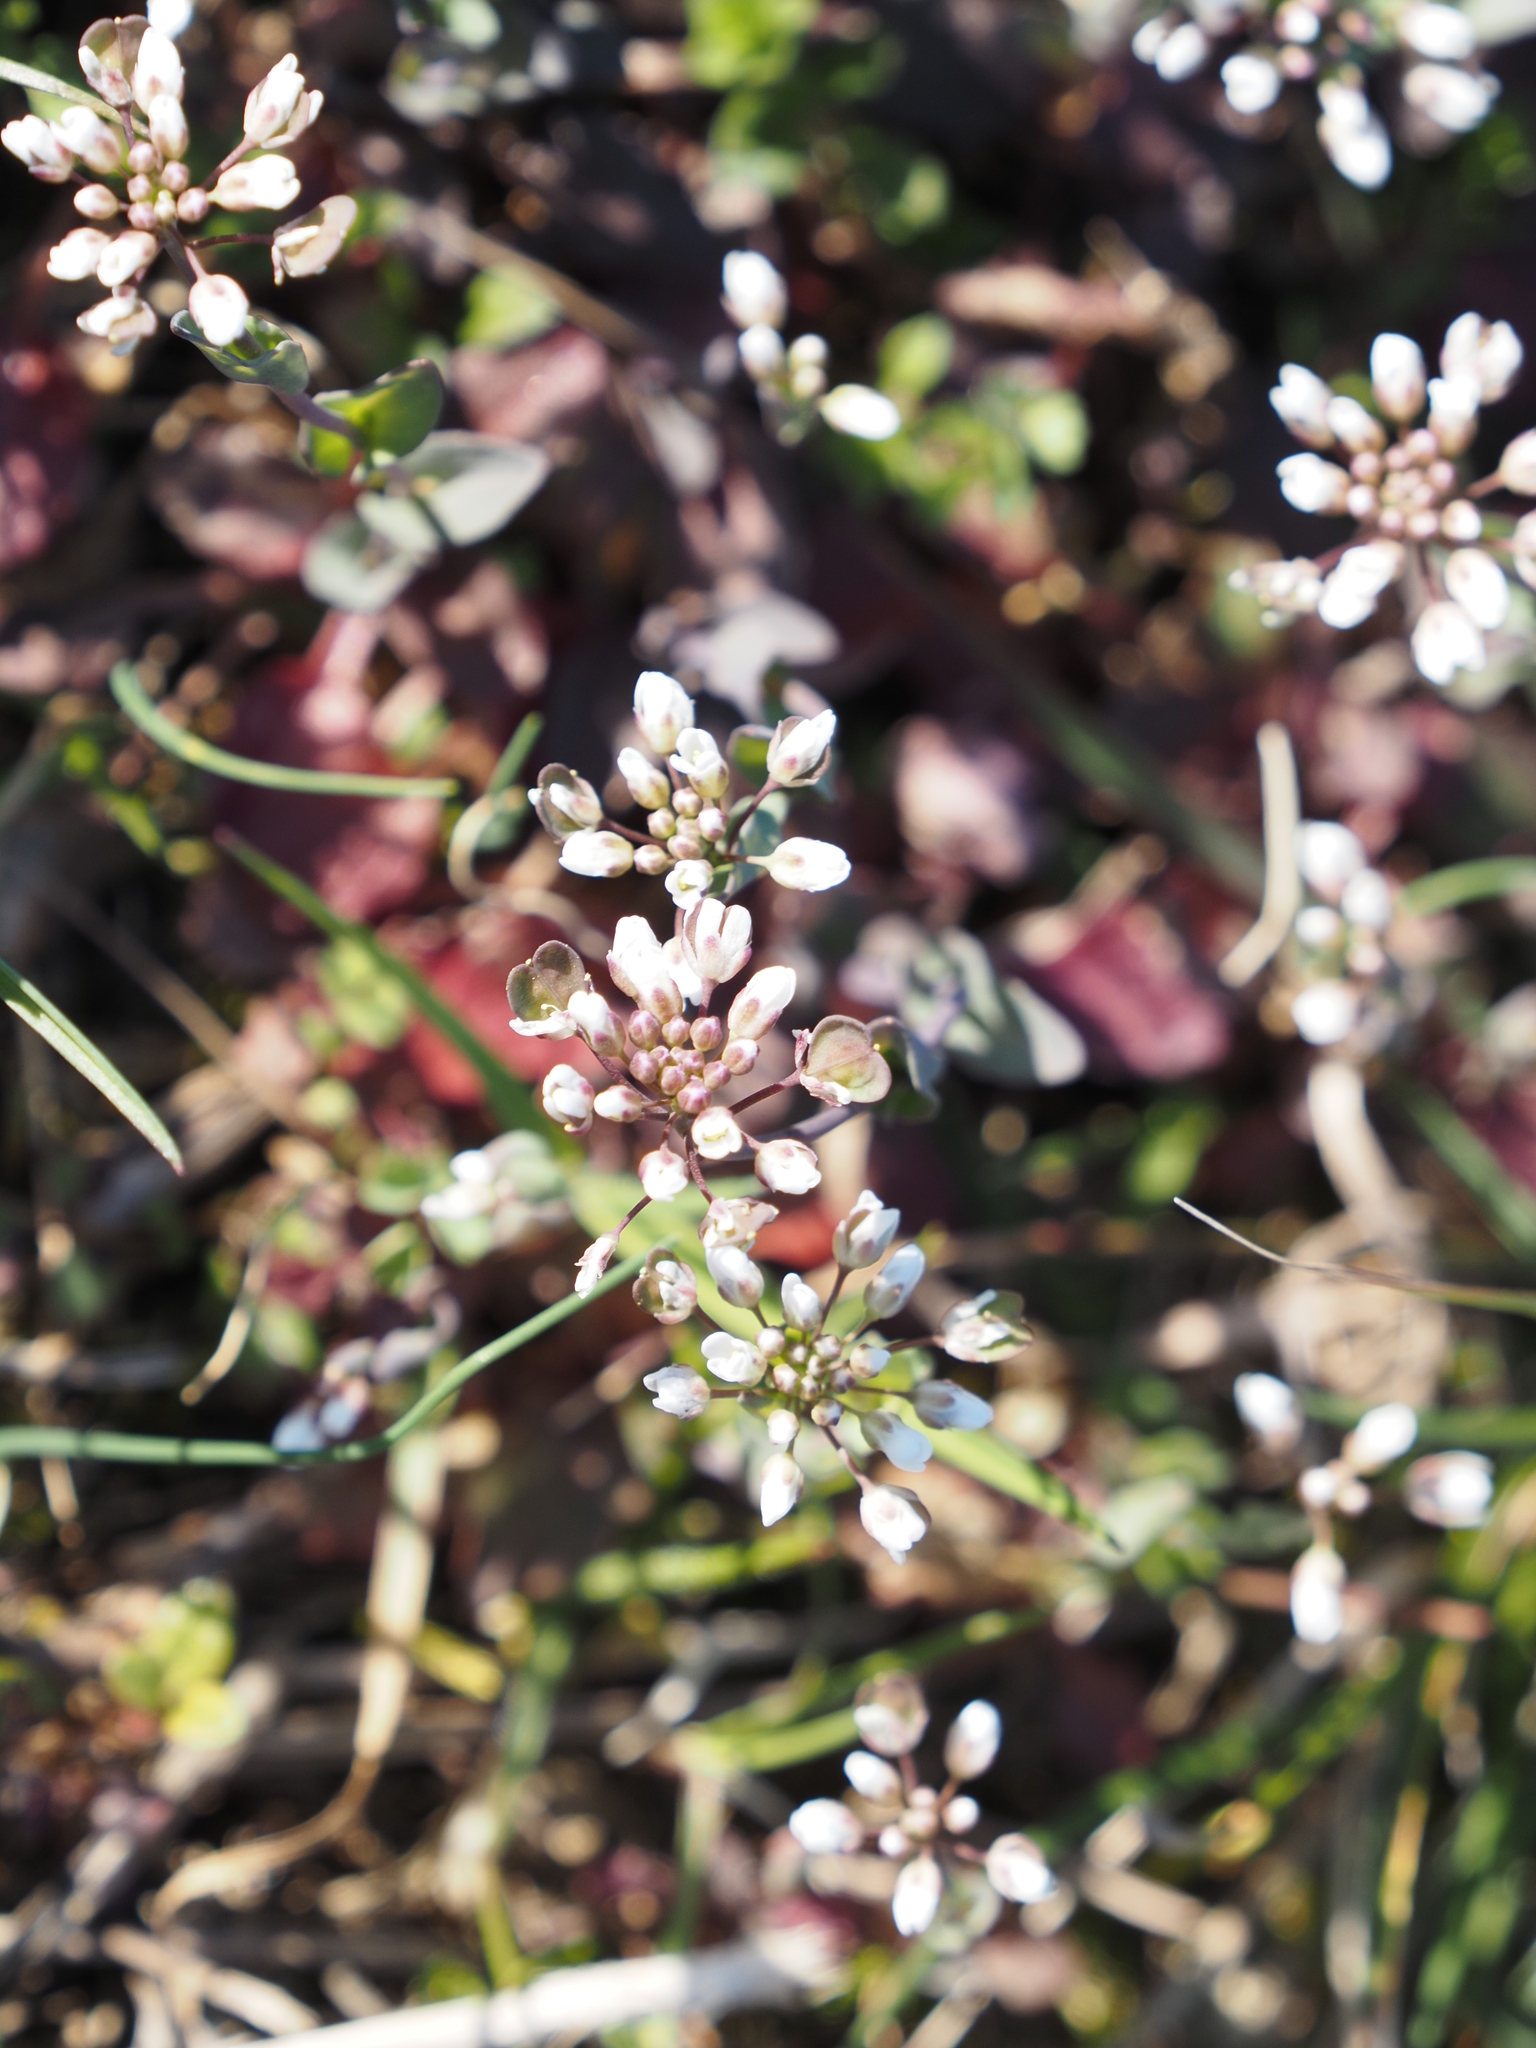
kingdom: Plantae
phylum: Tracheophyta
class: Magnoliopsida
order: Brassicales
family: Brassicaceae
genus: Noccaea
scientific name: Noccaea perfoliata
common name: Perfoliate pennycress
